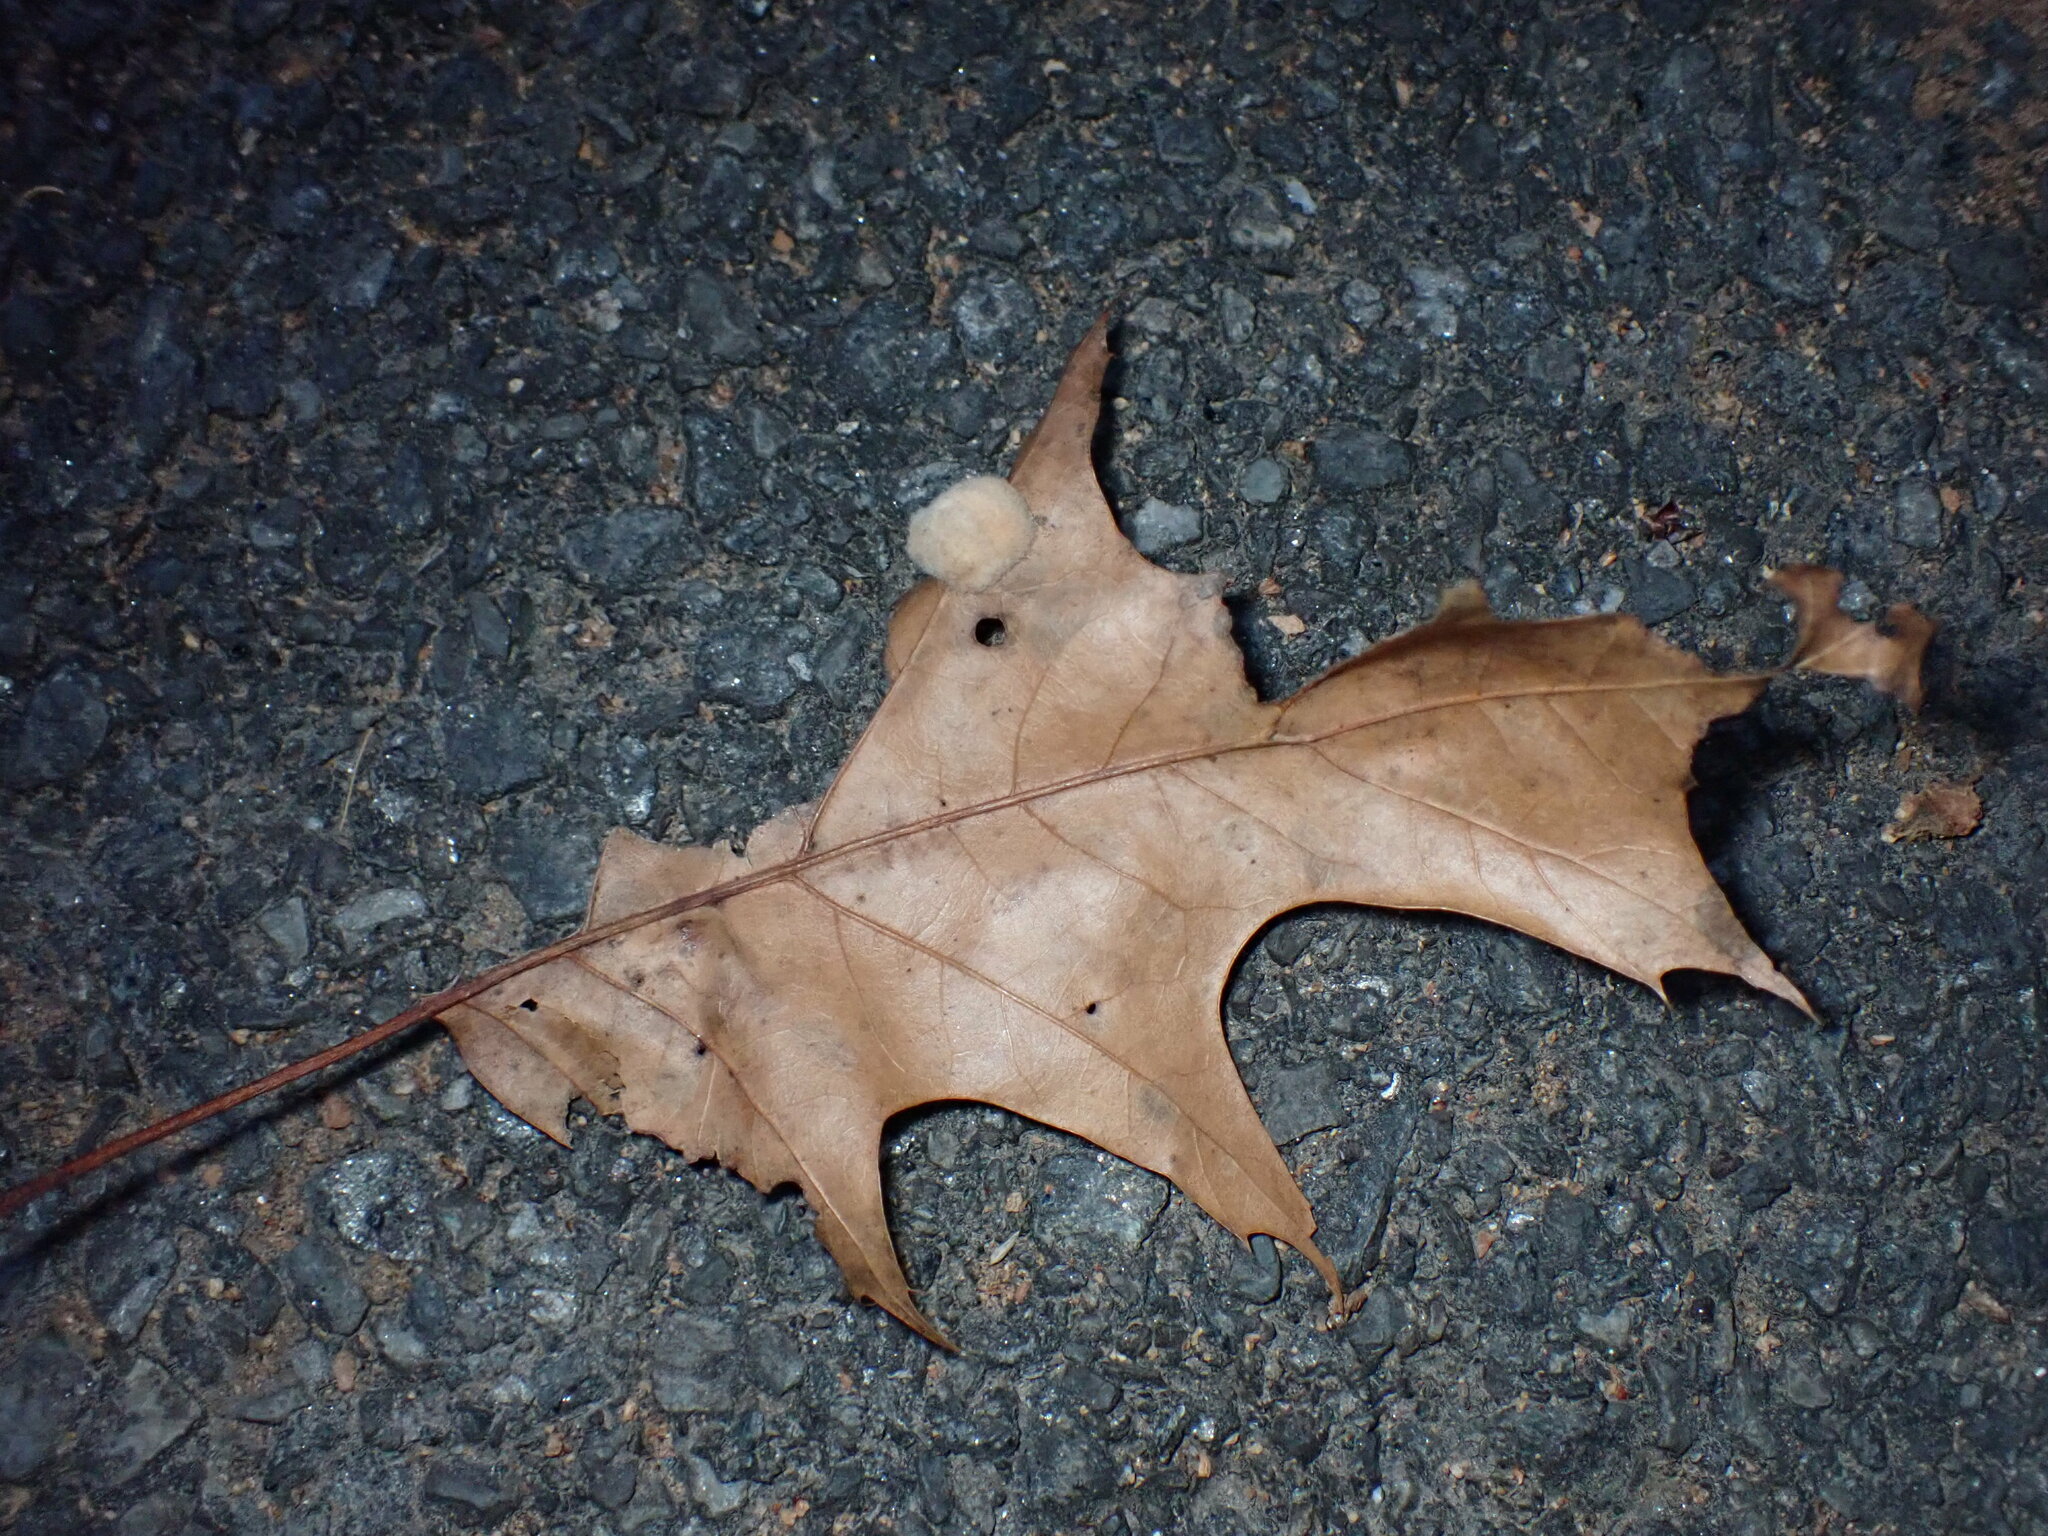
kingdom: Animalia
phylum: Arthropoda
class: Insecta
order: Hymenoptera
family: Cynipidae
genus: Callirhytis
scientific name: Callirhytis
